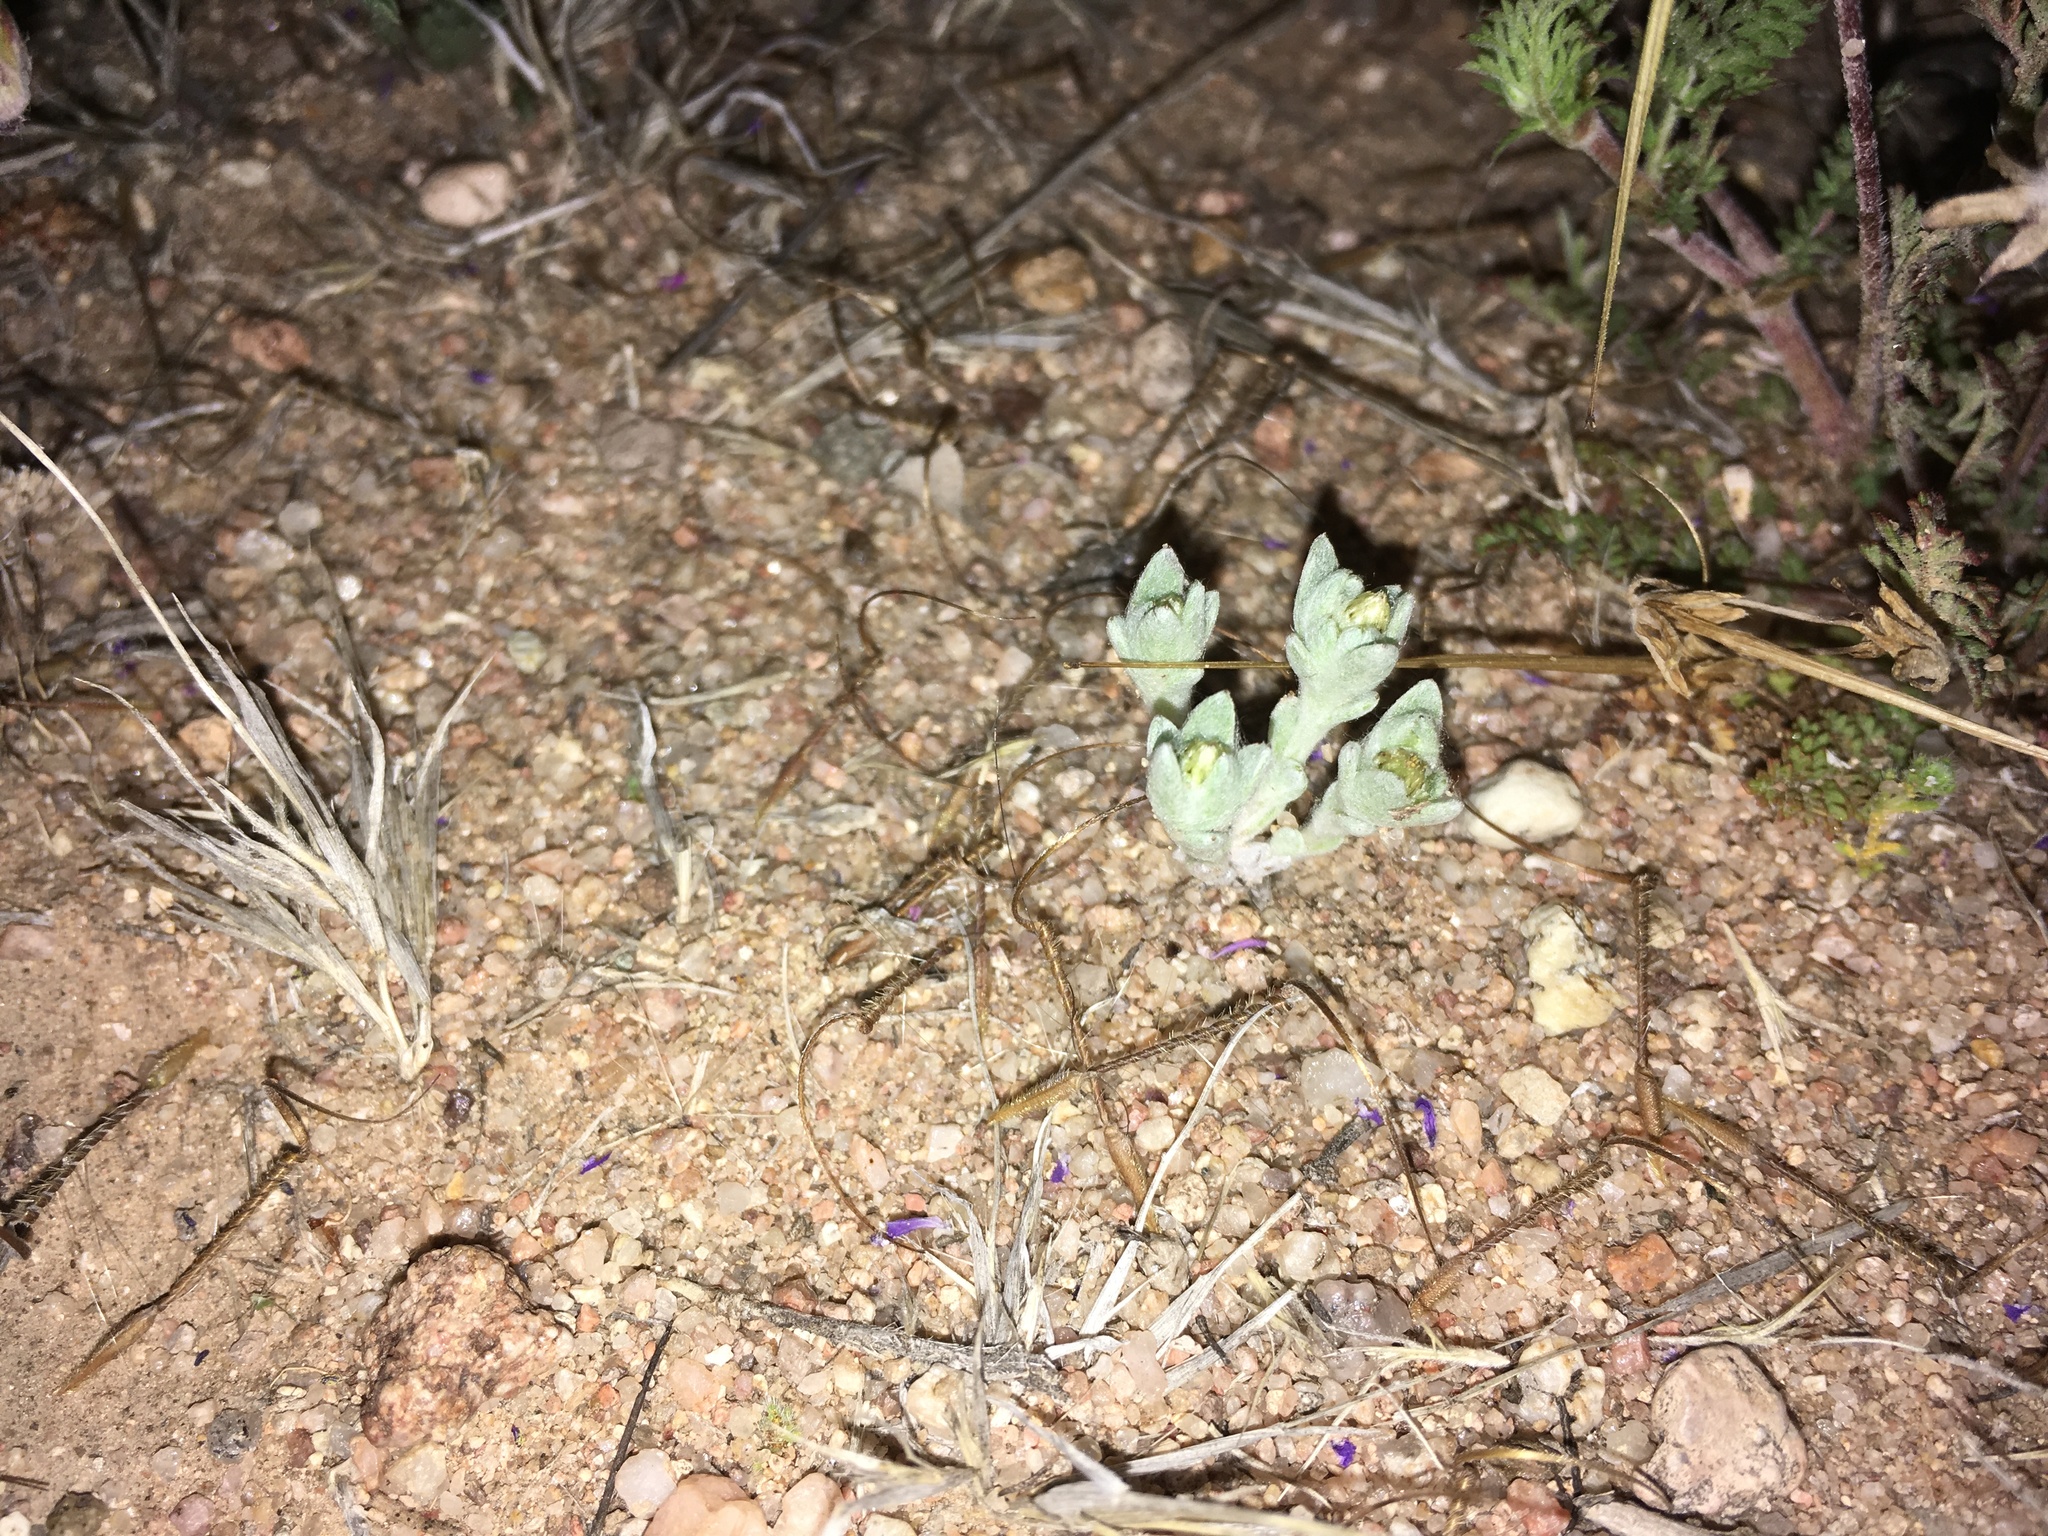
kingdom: Plantae
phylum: Tracheophyta
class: Magnoliopsida
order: Asterales
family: Asteraceae
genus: Stylocline
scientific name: Stylocline sonorensis
